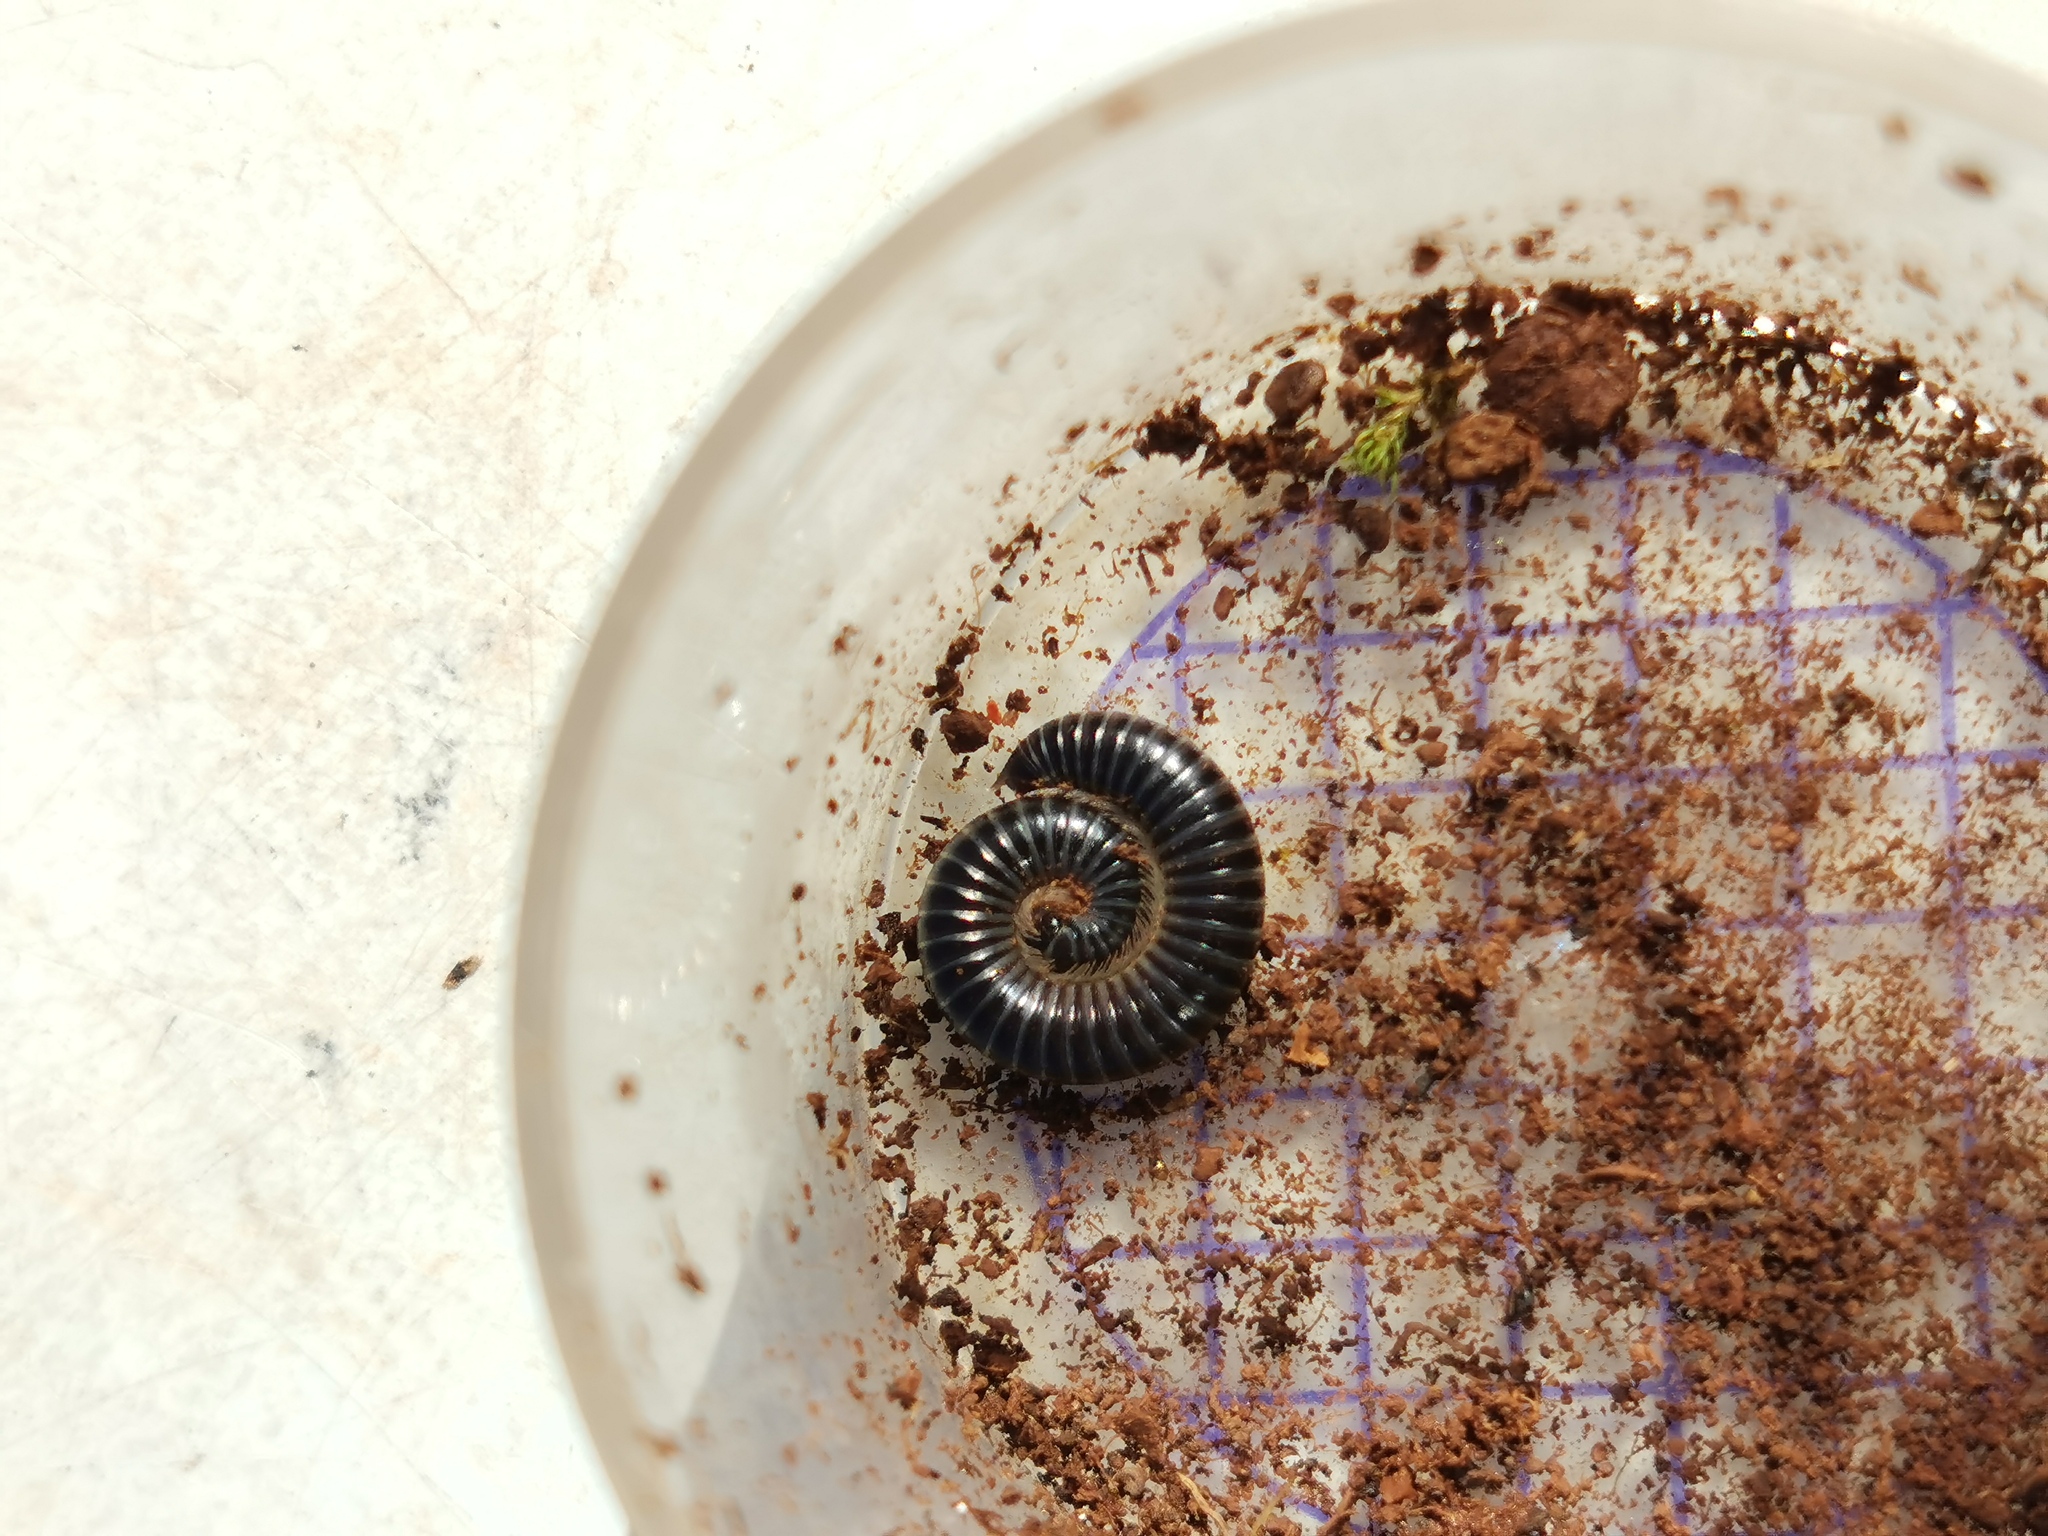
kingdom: Animalia
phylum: Arthropoda
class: Diplopoda
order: Julida
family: Julidae
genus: Ommatoiulus
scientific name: Ommatoiulus sabulosus
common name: Striped millipede
